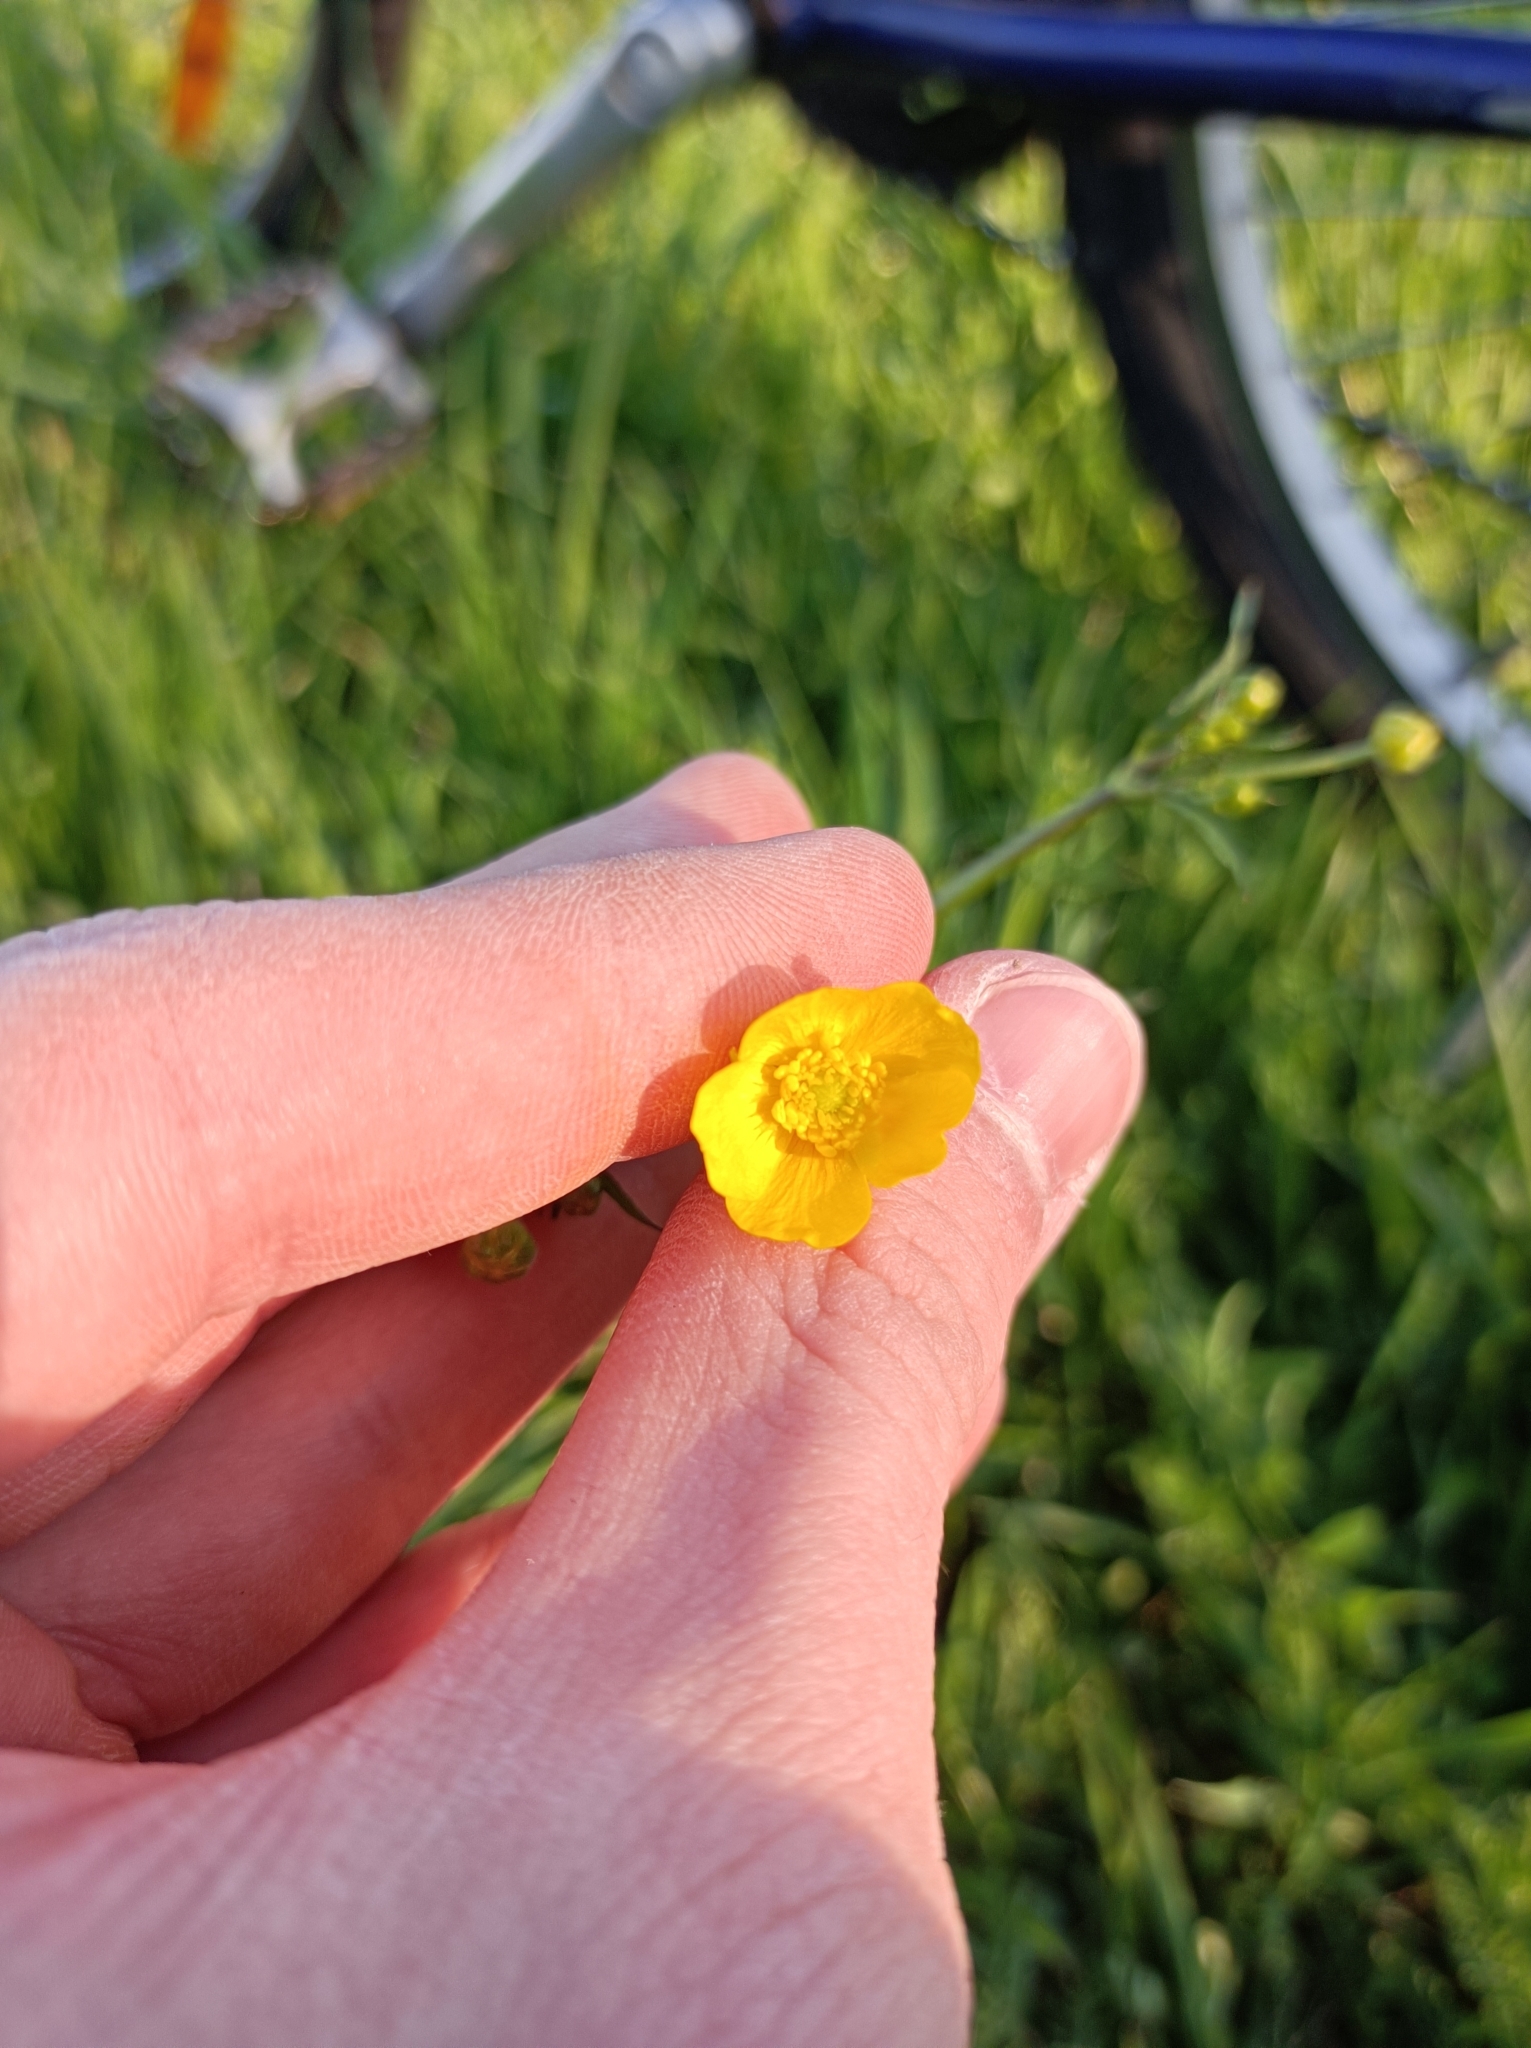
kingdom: Plantae
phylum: Tracheophyta
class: Magnoliopsida
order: Ranunculales
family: Ranunculaceae
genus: Ranunculus
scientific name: Ranunculus acris
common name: Meadow buttercup
